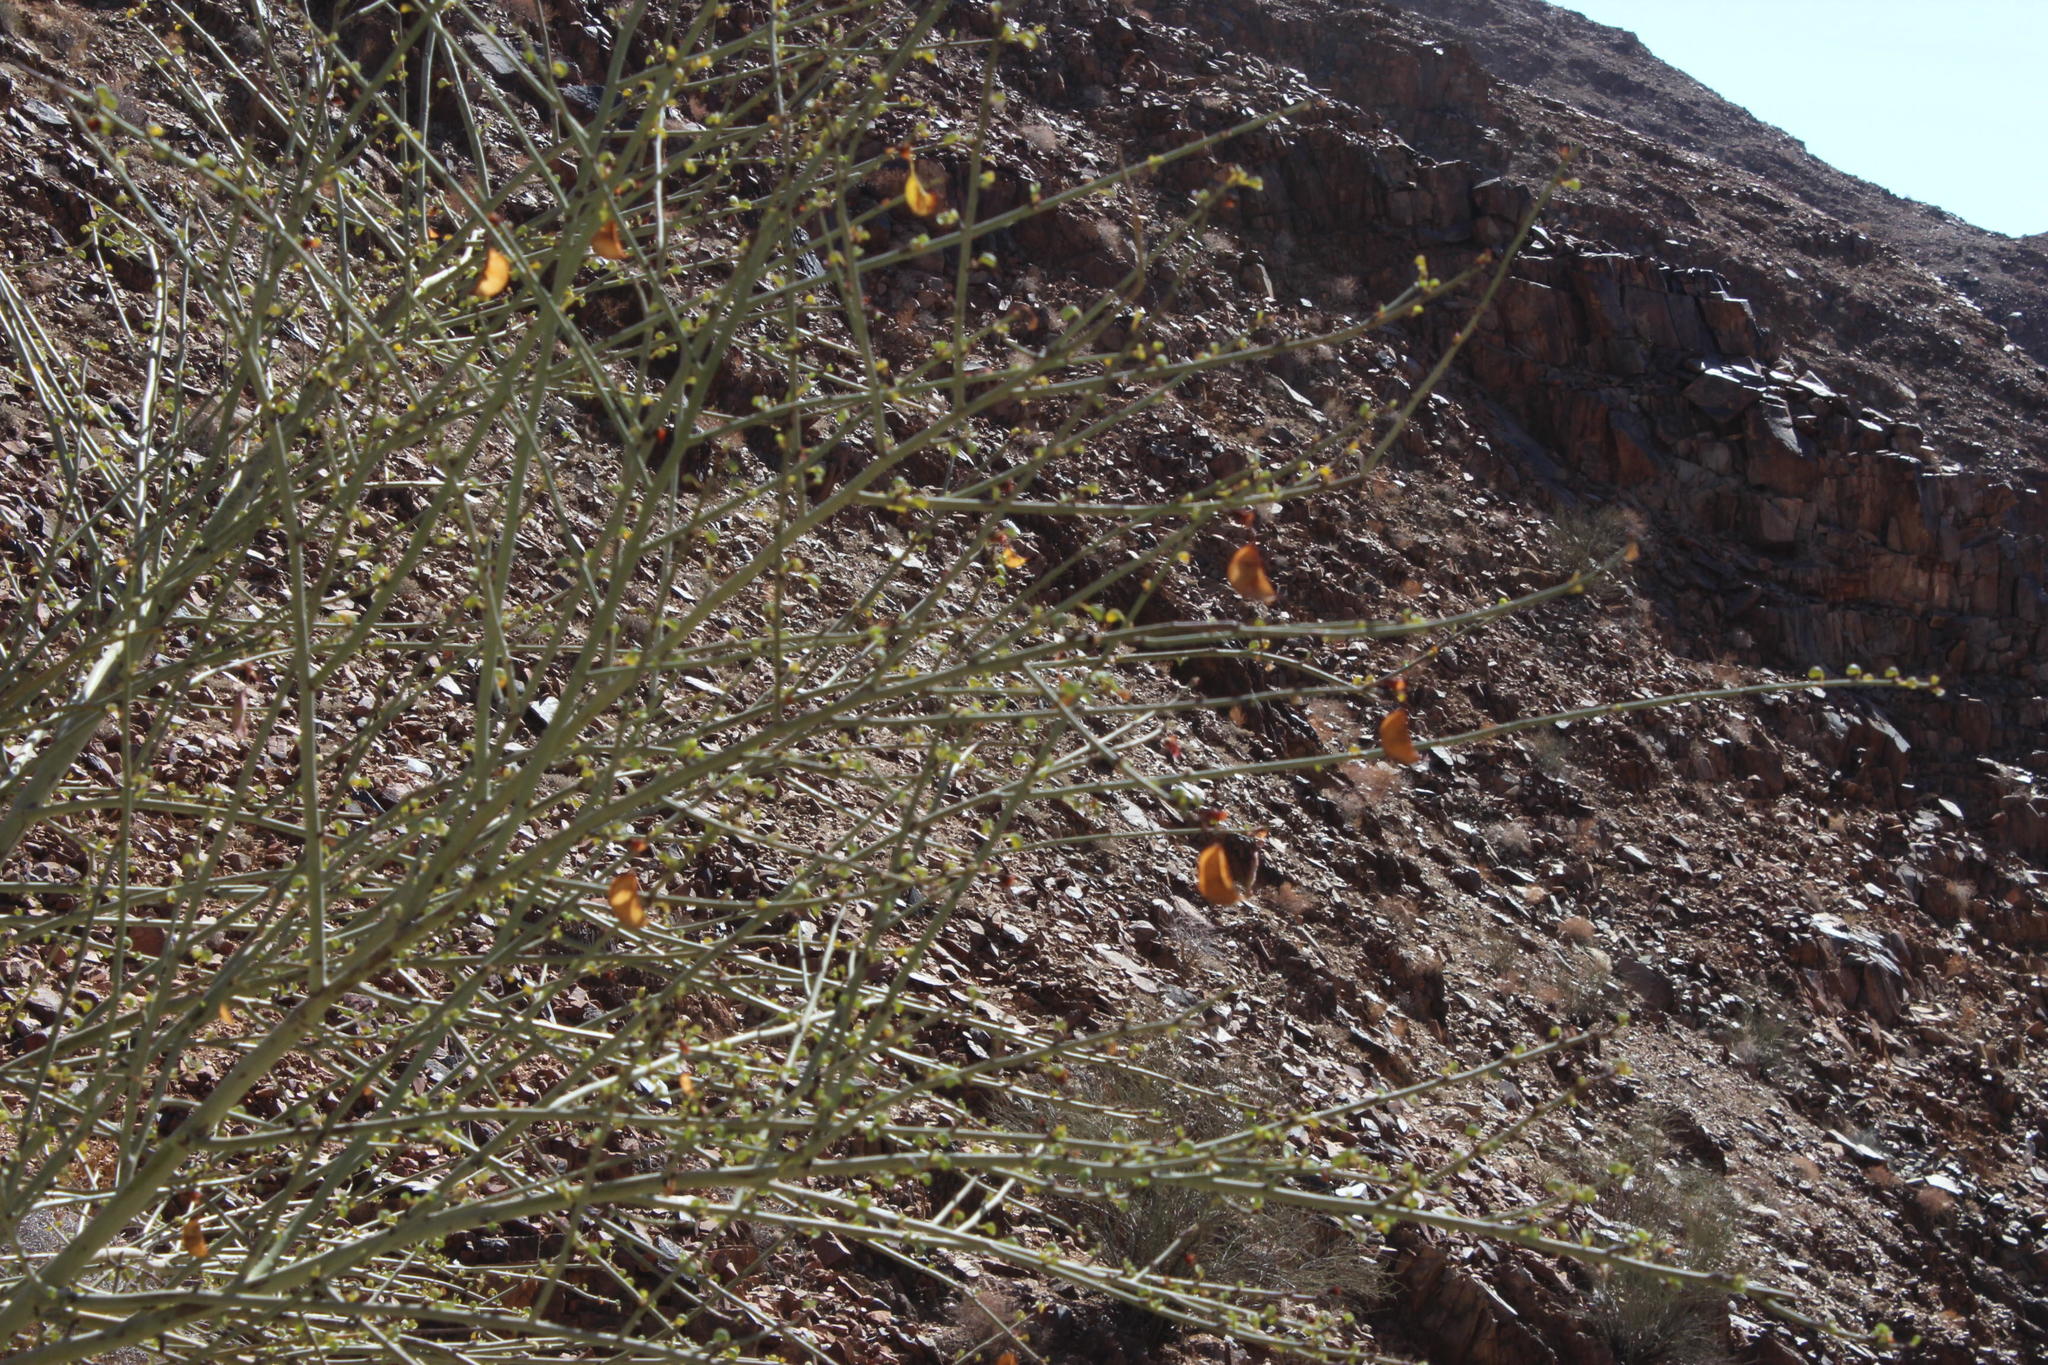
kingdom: Plantae
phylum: Tracheophyta
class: Magnoliopsida
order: Fabales
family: Fabaceae
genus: Adenolobus
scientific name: Adenolobus garipensis
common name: Butterfly-leaf
